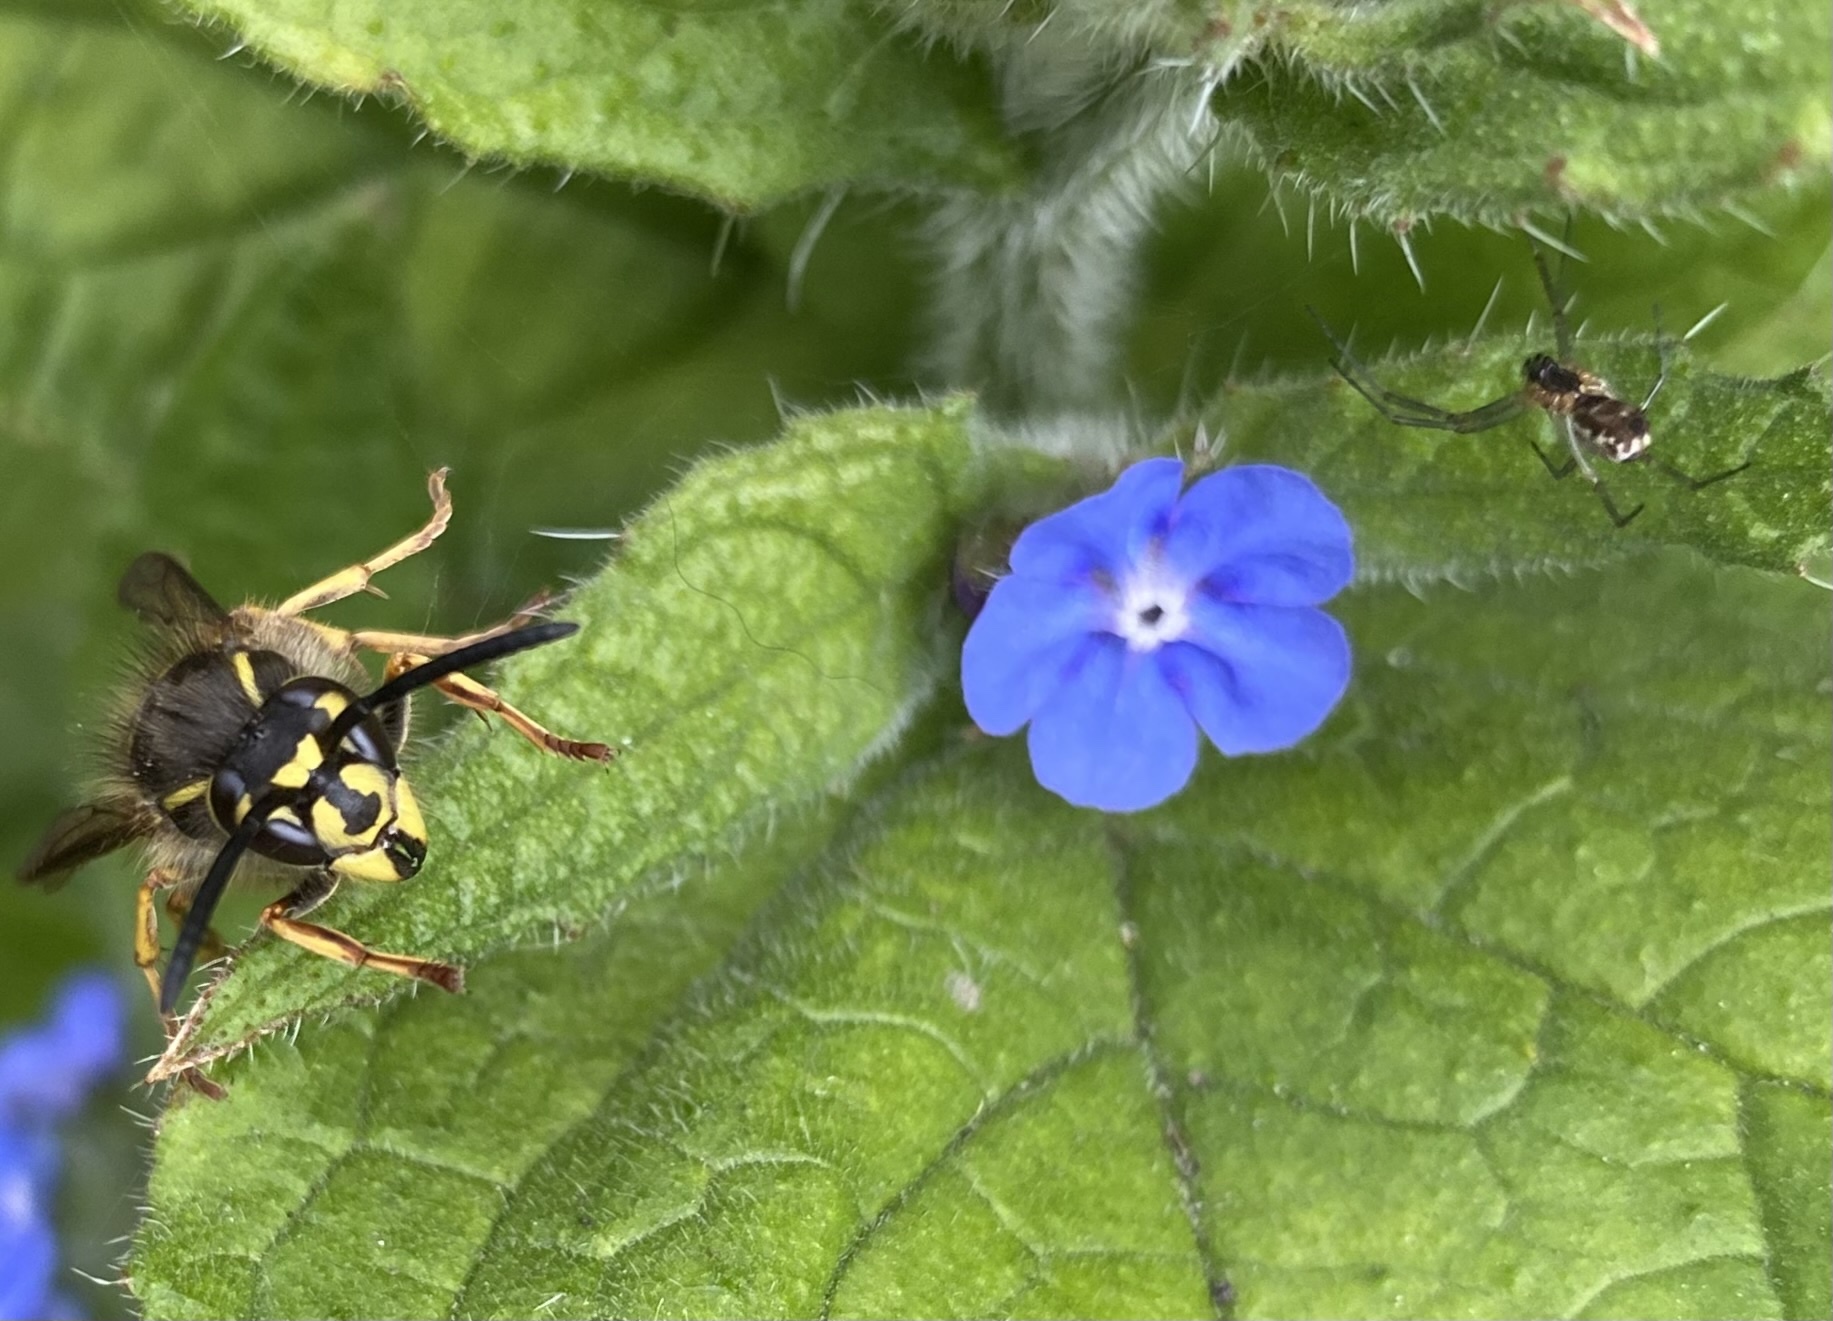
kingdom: Animalia
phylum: Arthropoda
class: Insecta
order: Hymenoptera
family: Vespidae
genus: Vespula
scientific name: Vespula vulgaris
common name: Common wasp
